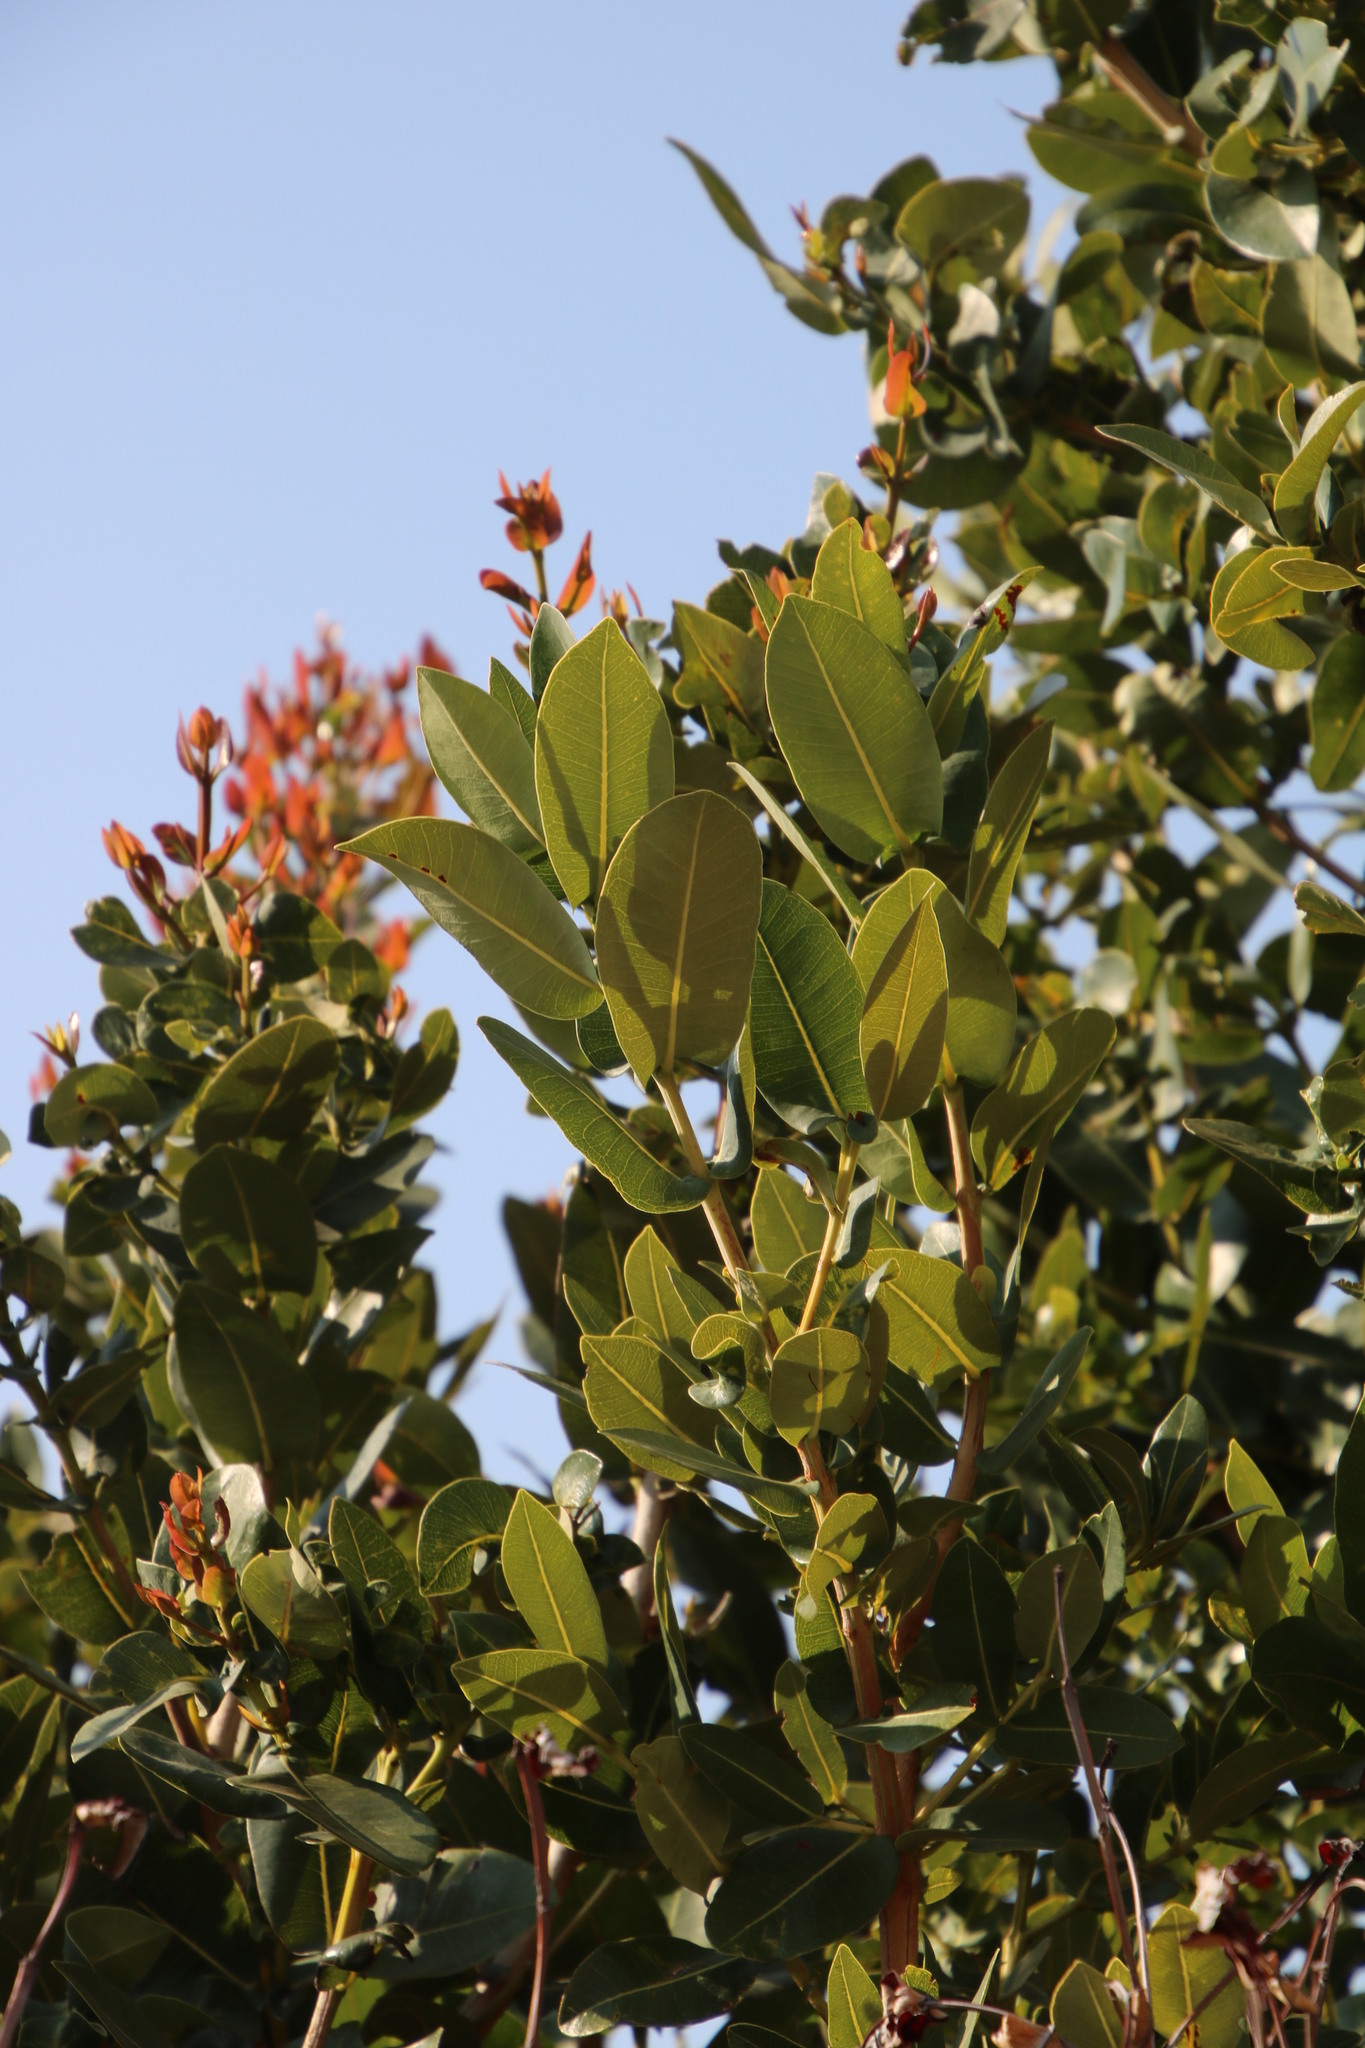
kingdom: Plantae
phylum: Tracheophyta
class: Magnoliopsida
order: Myrtales
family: Myrtaceae
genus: Syzygium
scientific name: Syzygium cordatum
